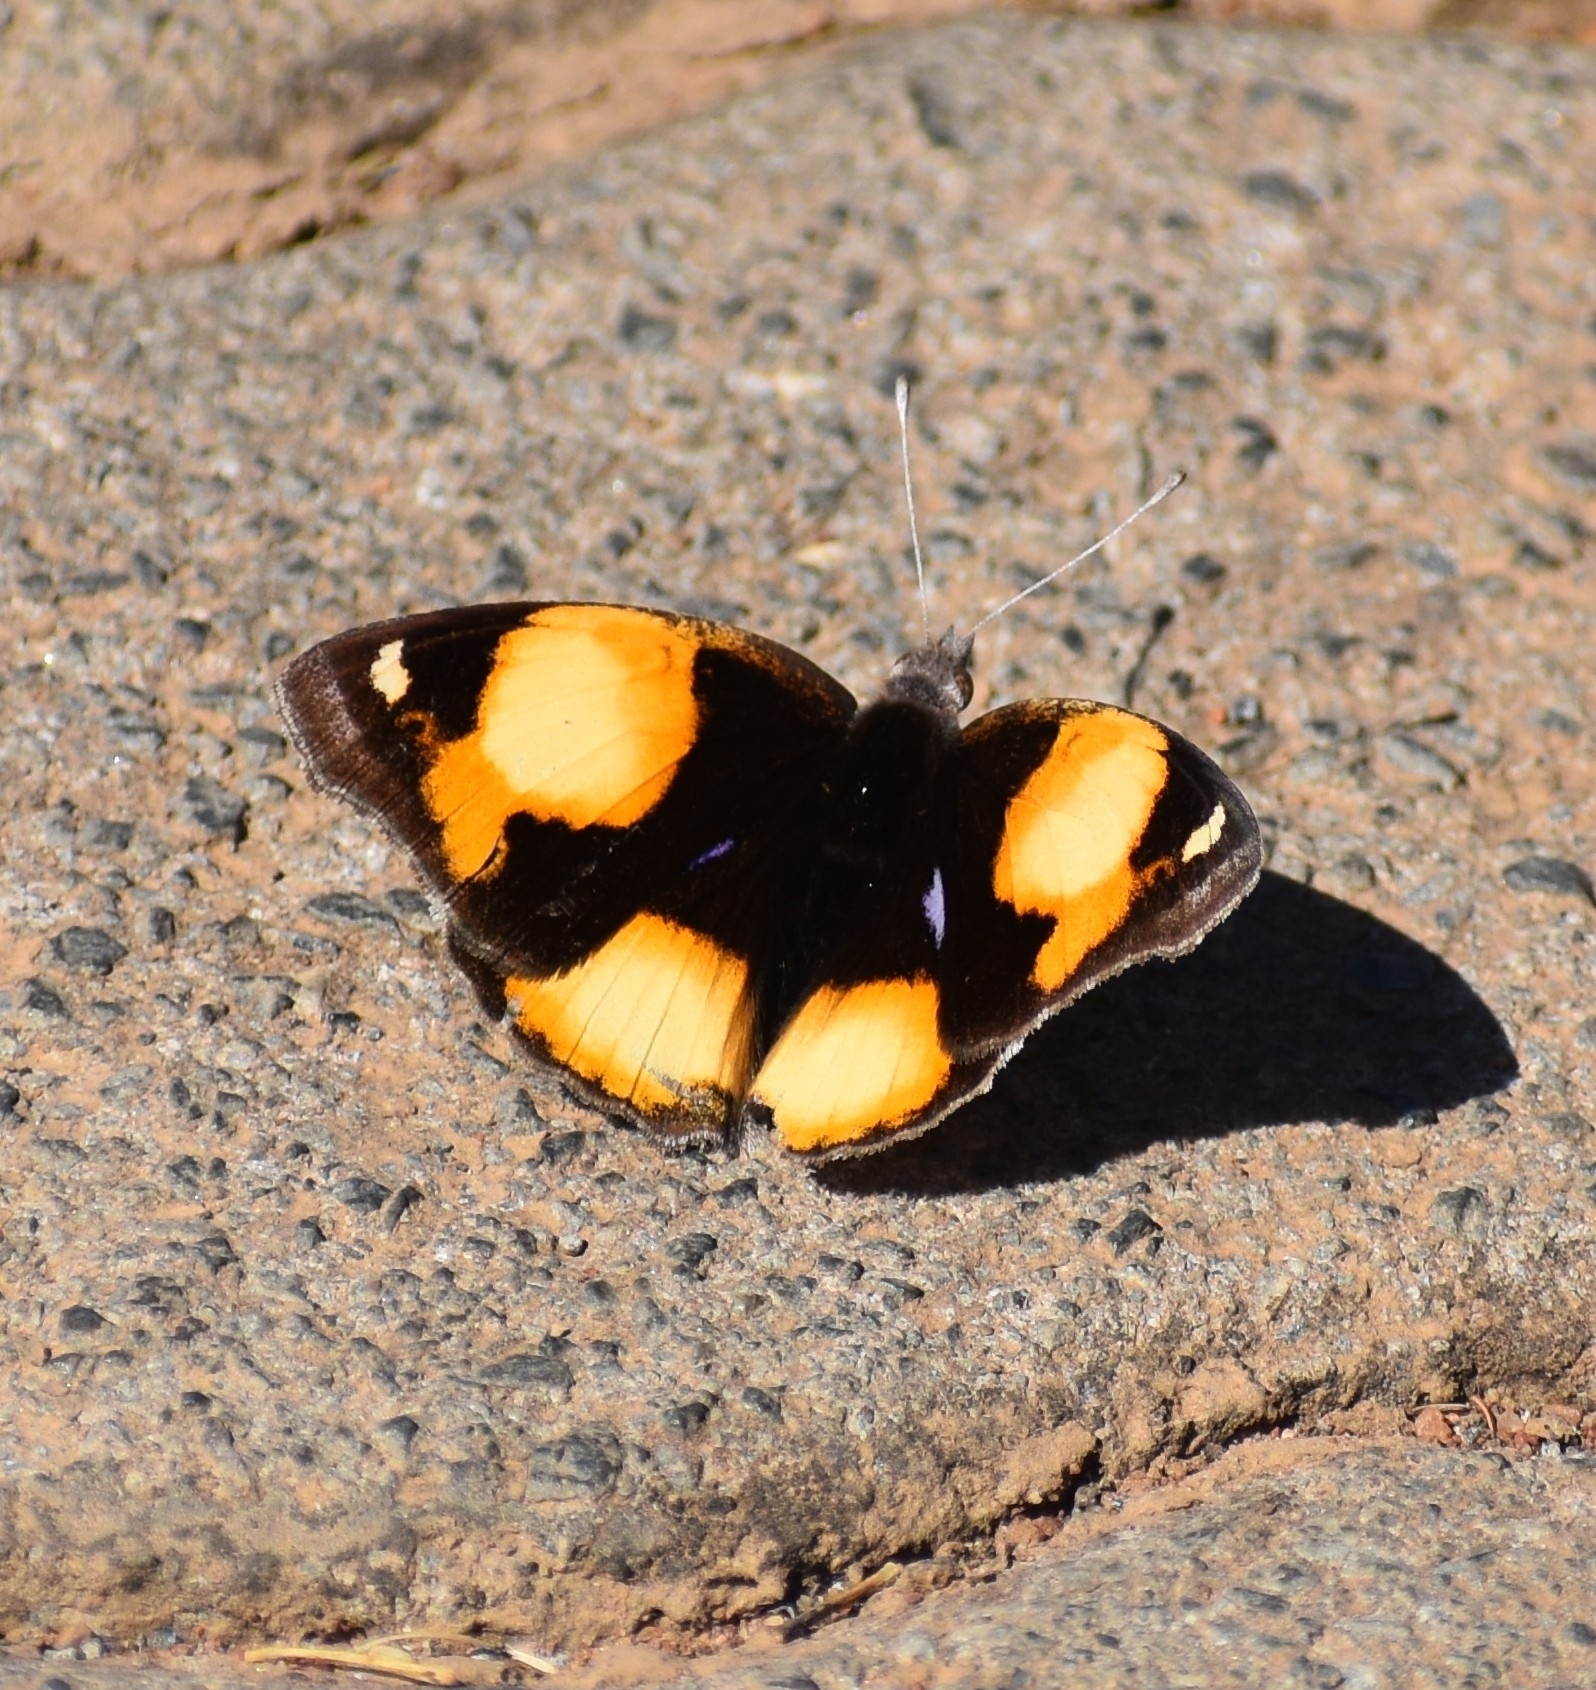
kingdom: Animalia
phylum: Arthropoda
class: Insecta
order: Lepidoptera
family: Nymphalidae
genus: Junonia
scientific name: Junonia hierta
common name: Yellow pansy
